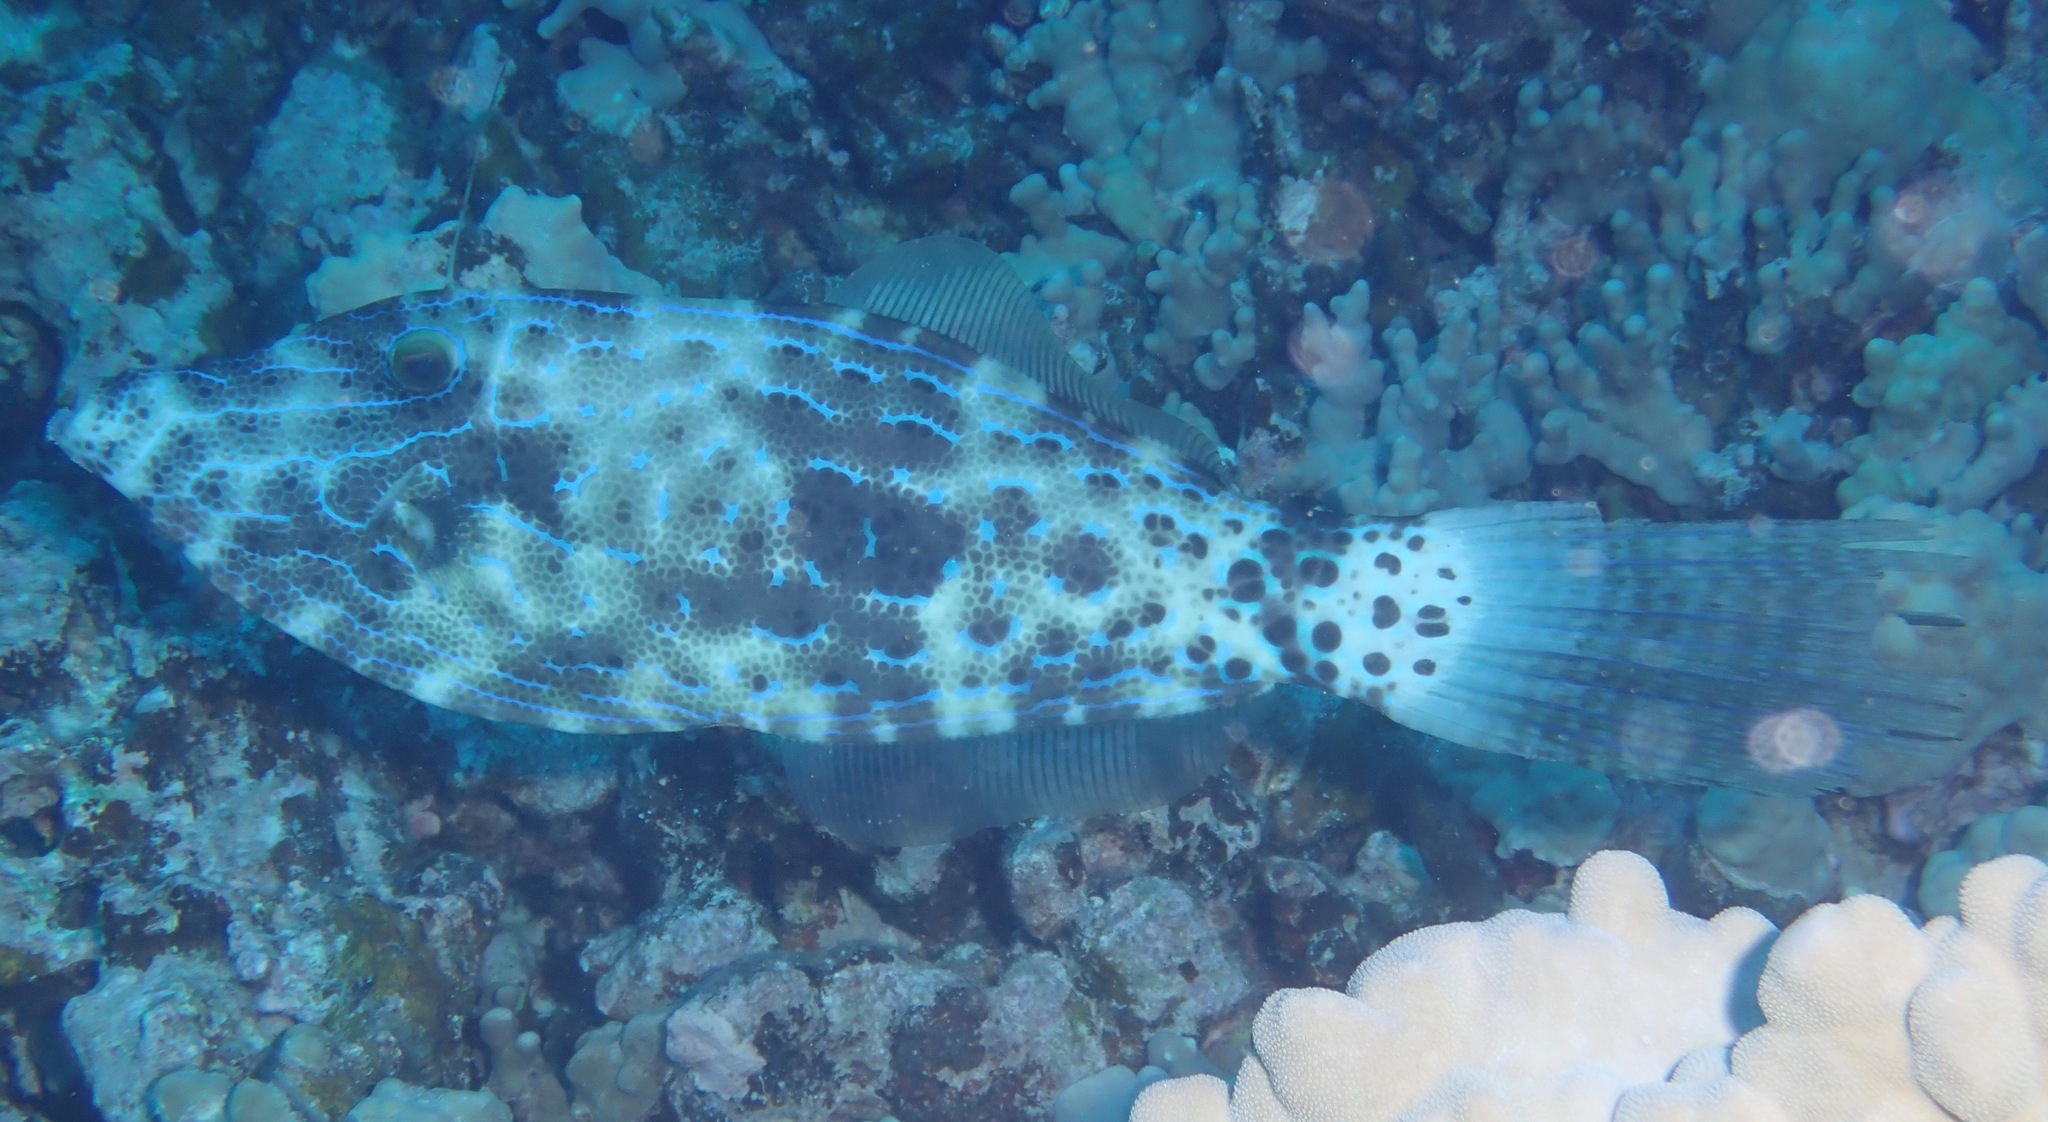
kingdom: Animalia
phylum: Chordata
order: Tetraodontiformes
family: Monacanthidae
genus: Aluterus
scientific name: Aluterus scriptus
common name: Scribbled leatherjacket filefish
